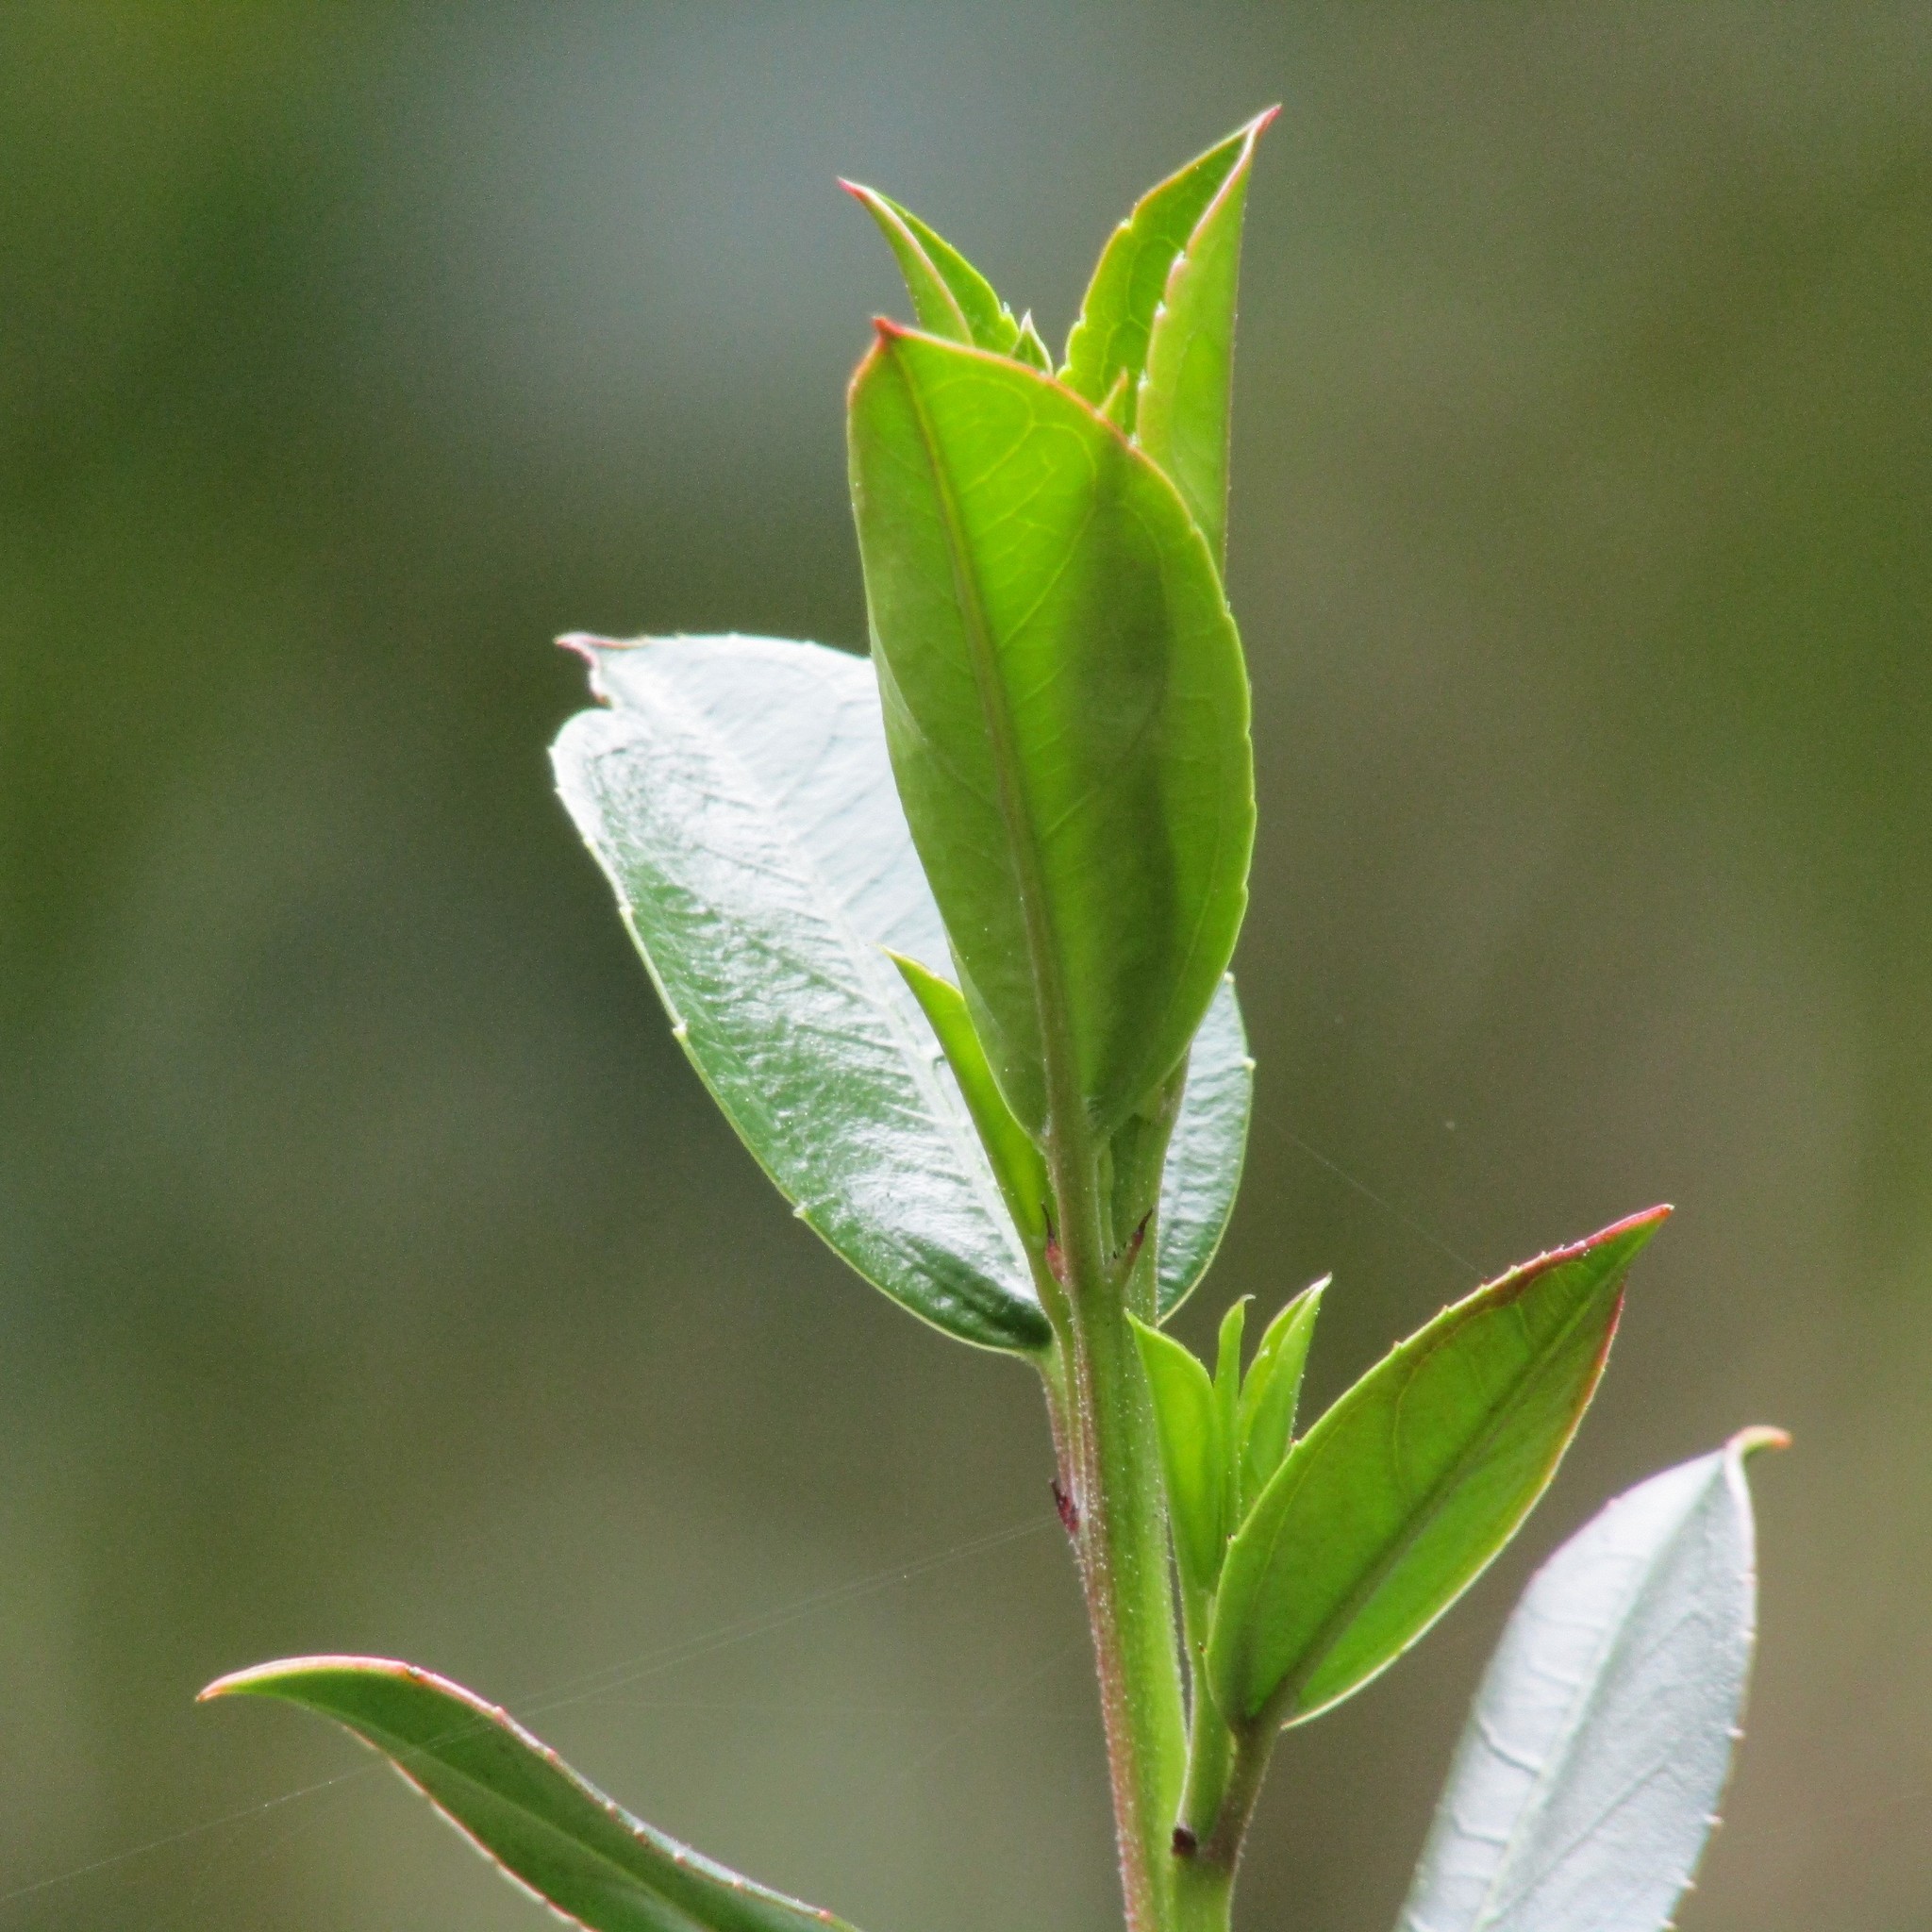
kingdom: Plantae
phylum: Tracheophyta
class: Magnoliopsida
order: Rosales
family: Rhamnaceae
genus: Rhamnus
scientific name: Rhamnus alaternus
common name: Mediterranean buckthorn
